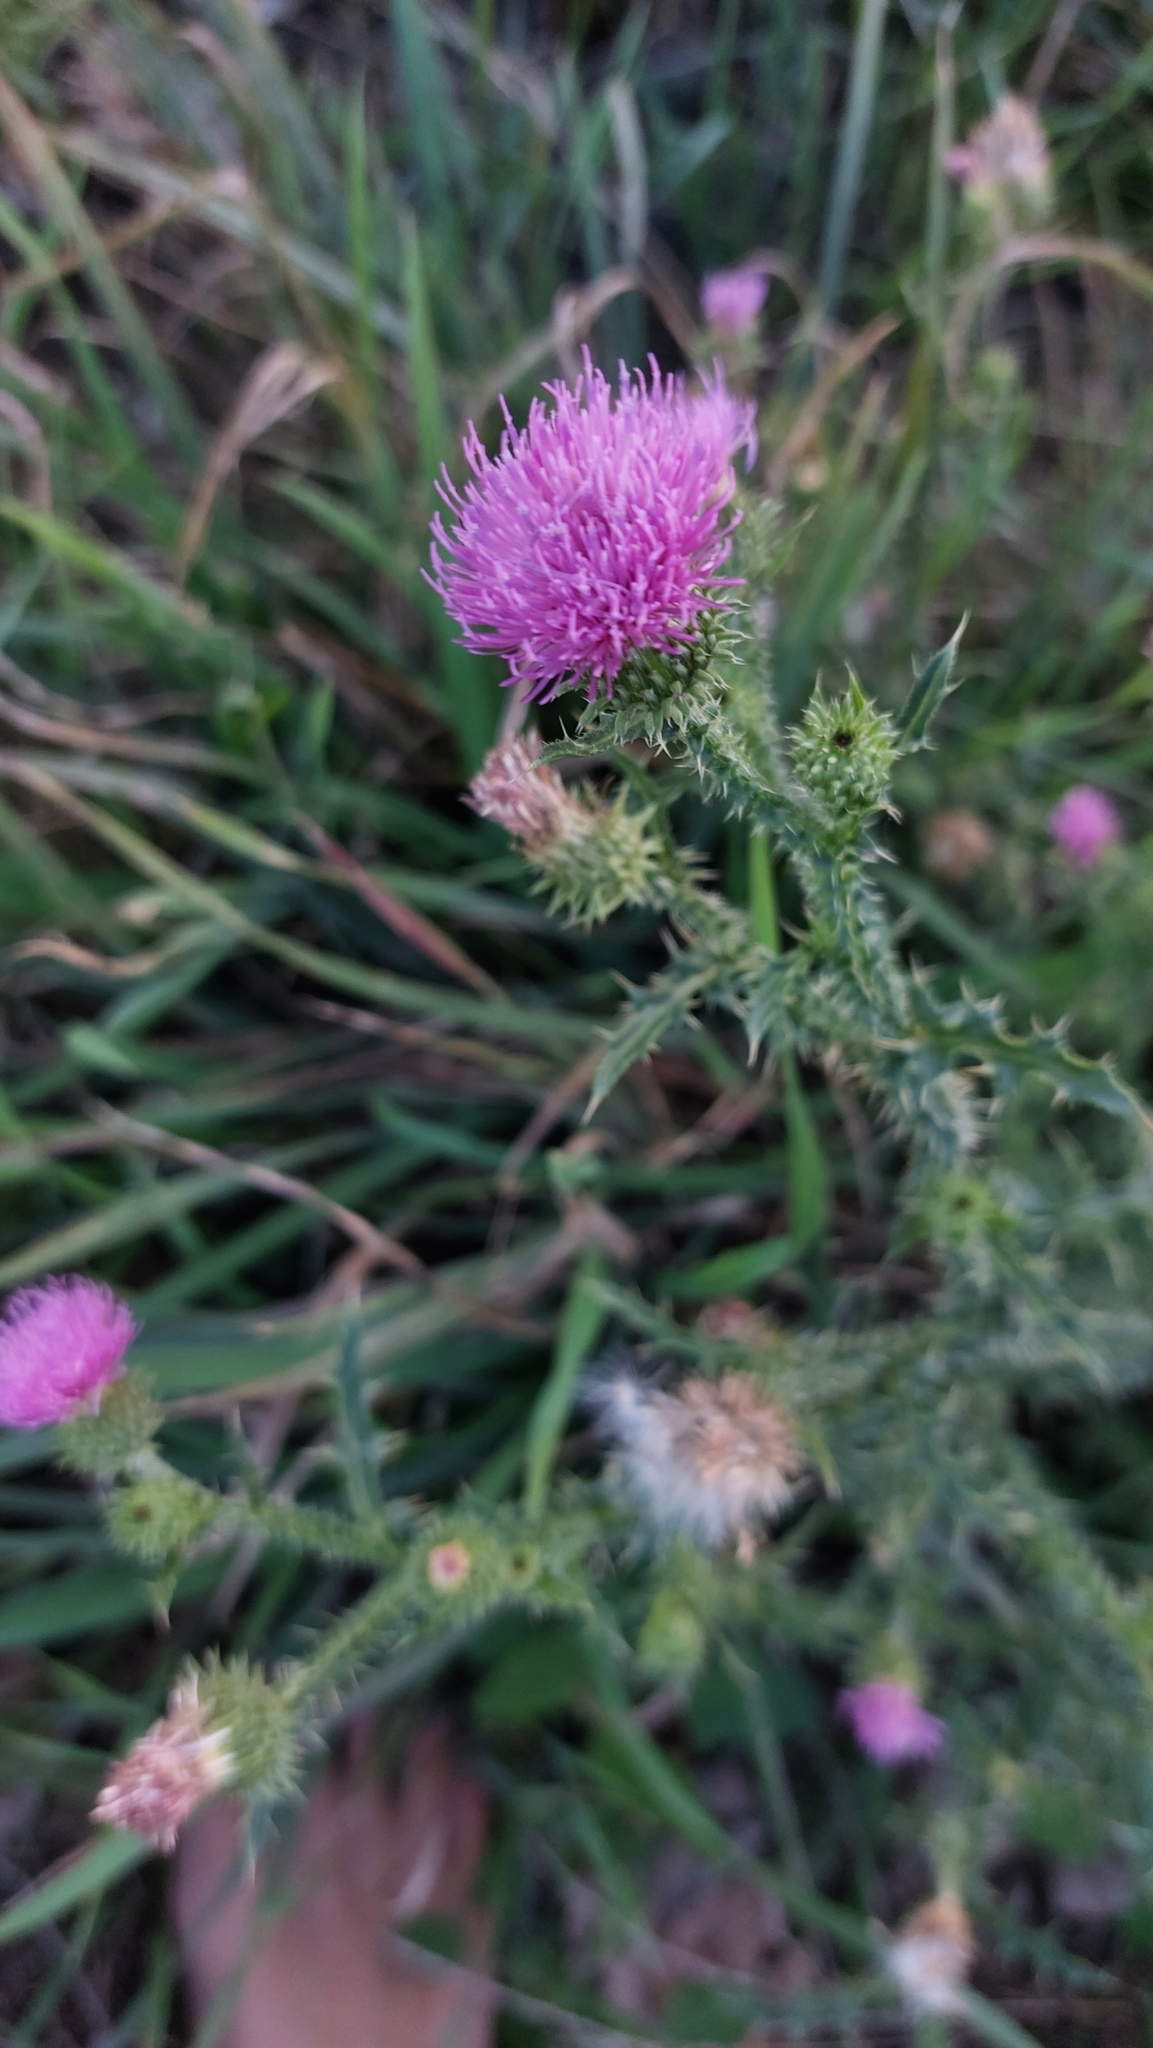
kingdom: Plantae
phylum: Tracheophyta
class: Magnoliopsida
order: Asterales
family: Asteraceae
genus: Carduus
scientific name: Carduus acanthoides
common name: Plumeless thistle
